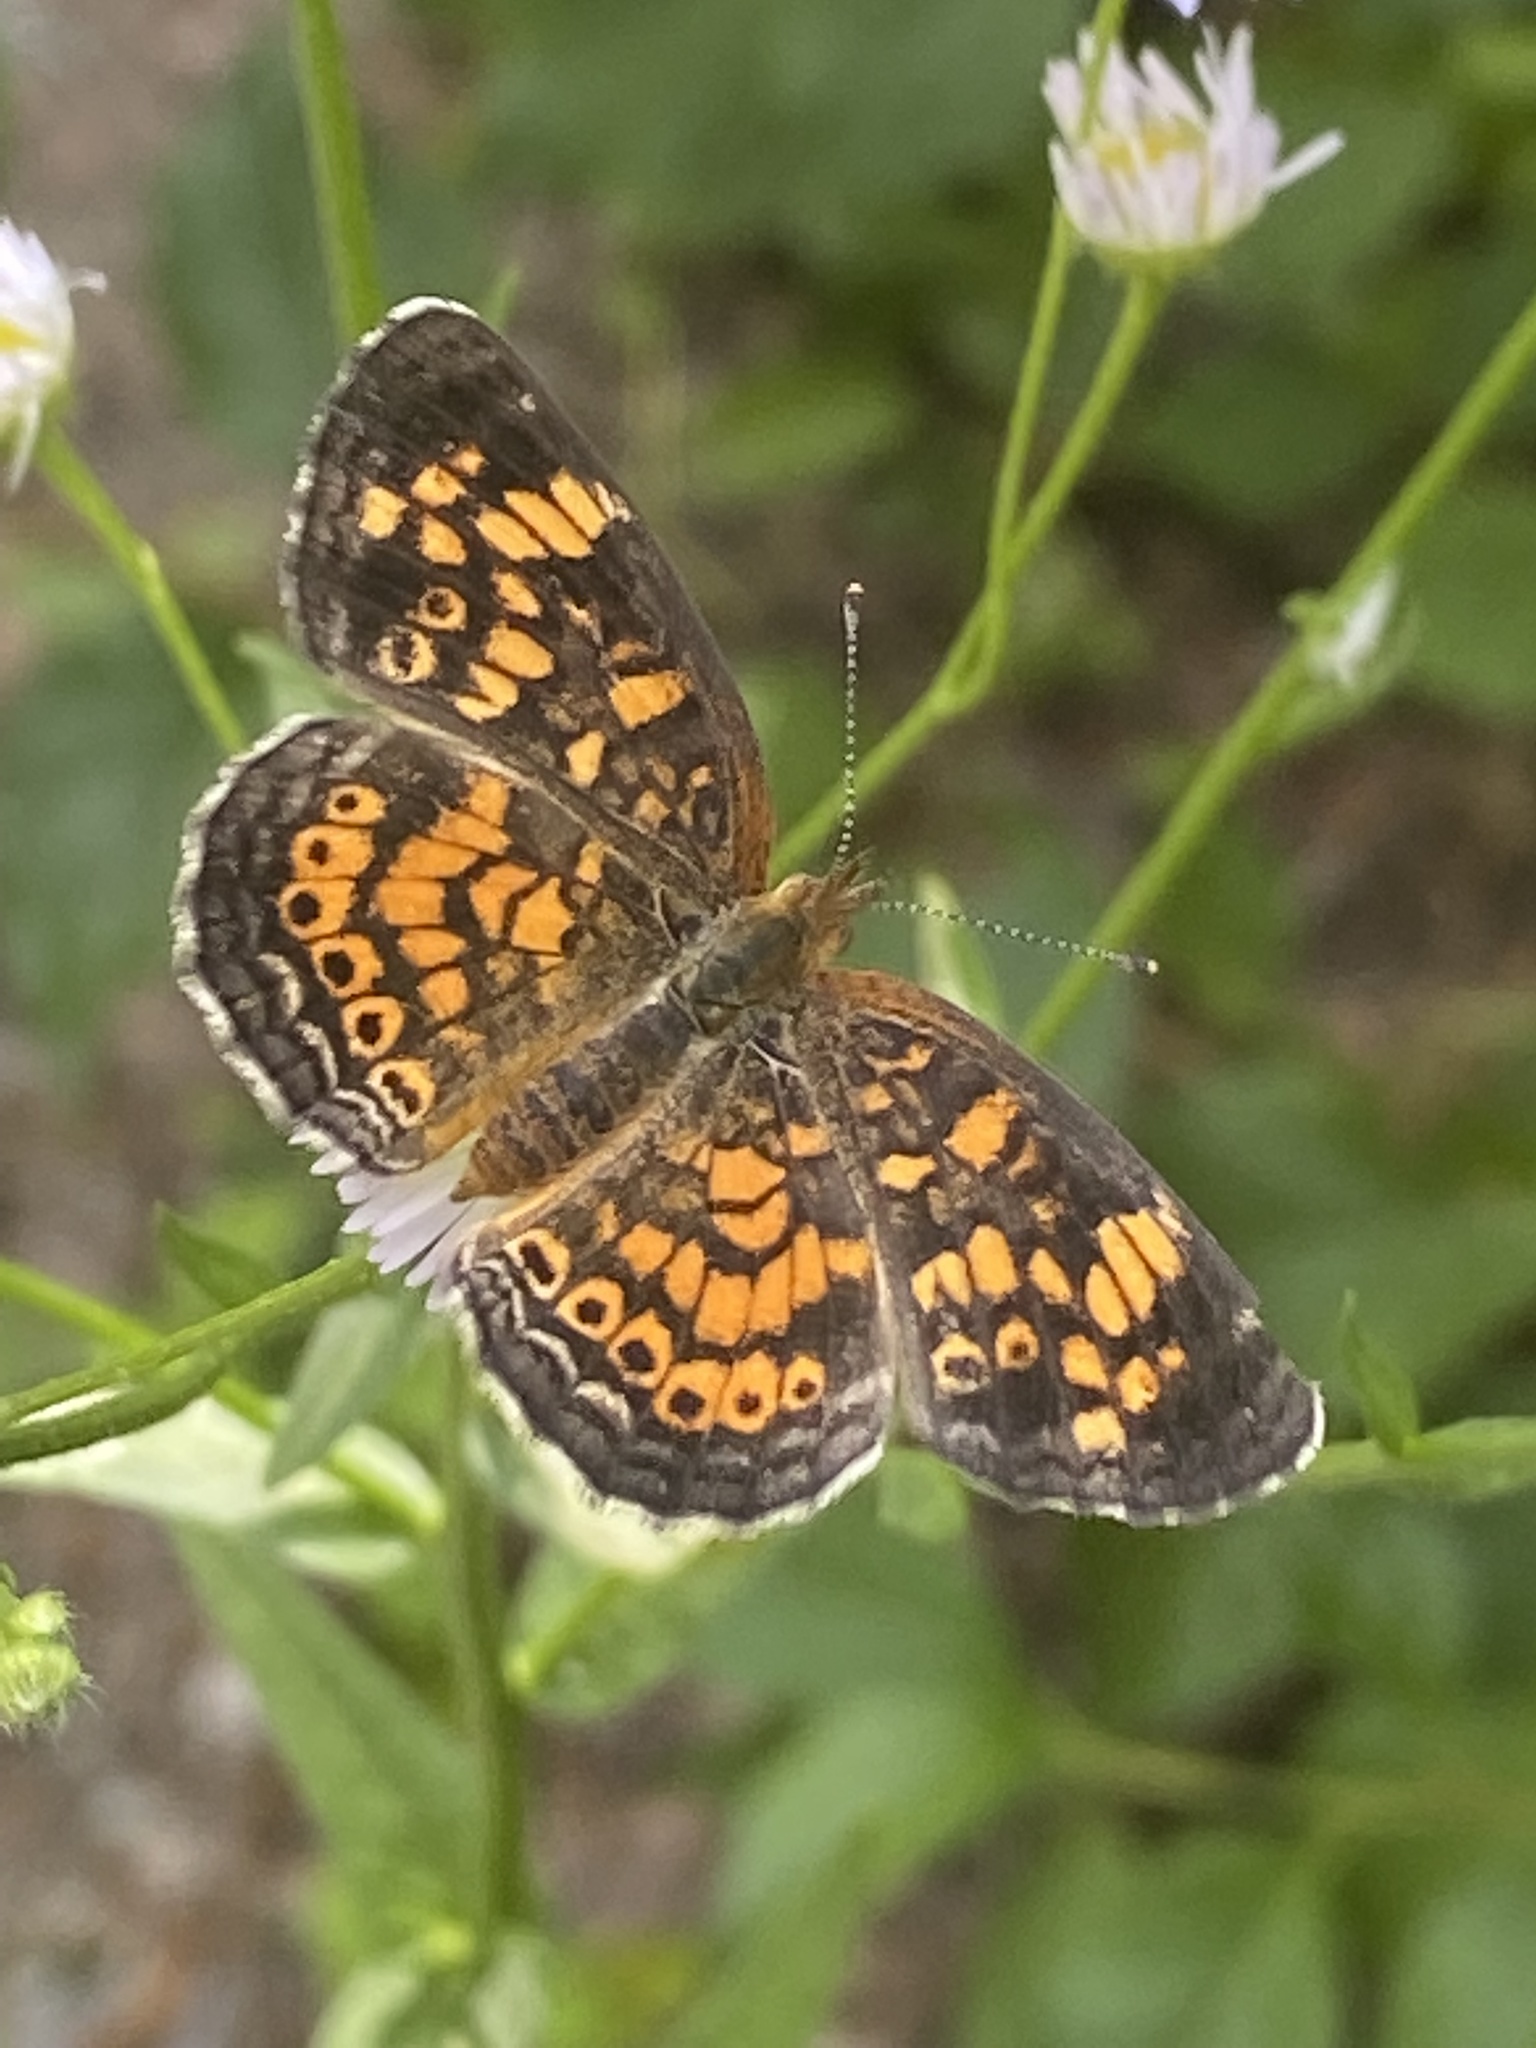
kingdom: Animalia
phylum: Arthropoda
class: Insecta
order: Lepidoptera
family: Nymphalidae
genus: Phyciodes
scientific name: Phyciodes tharos
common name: Pearl crescent
